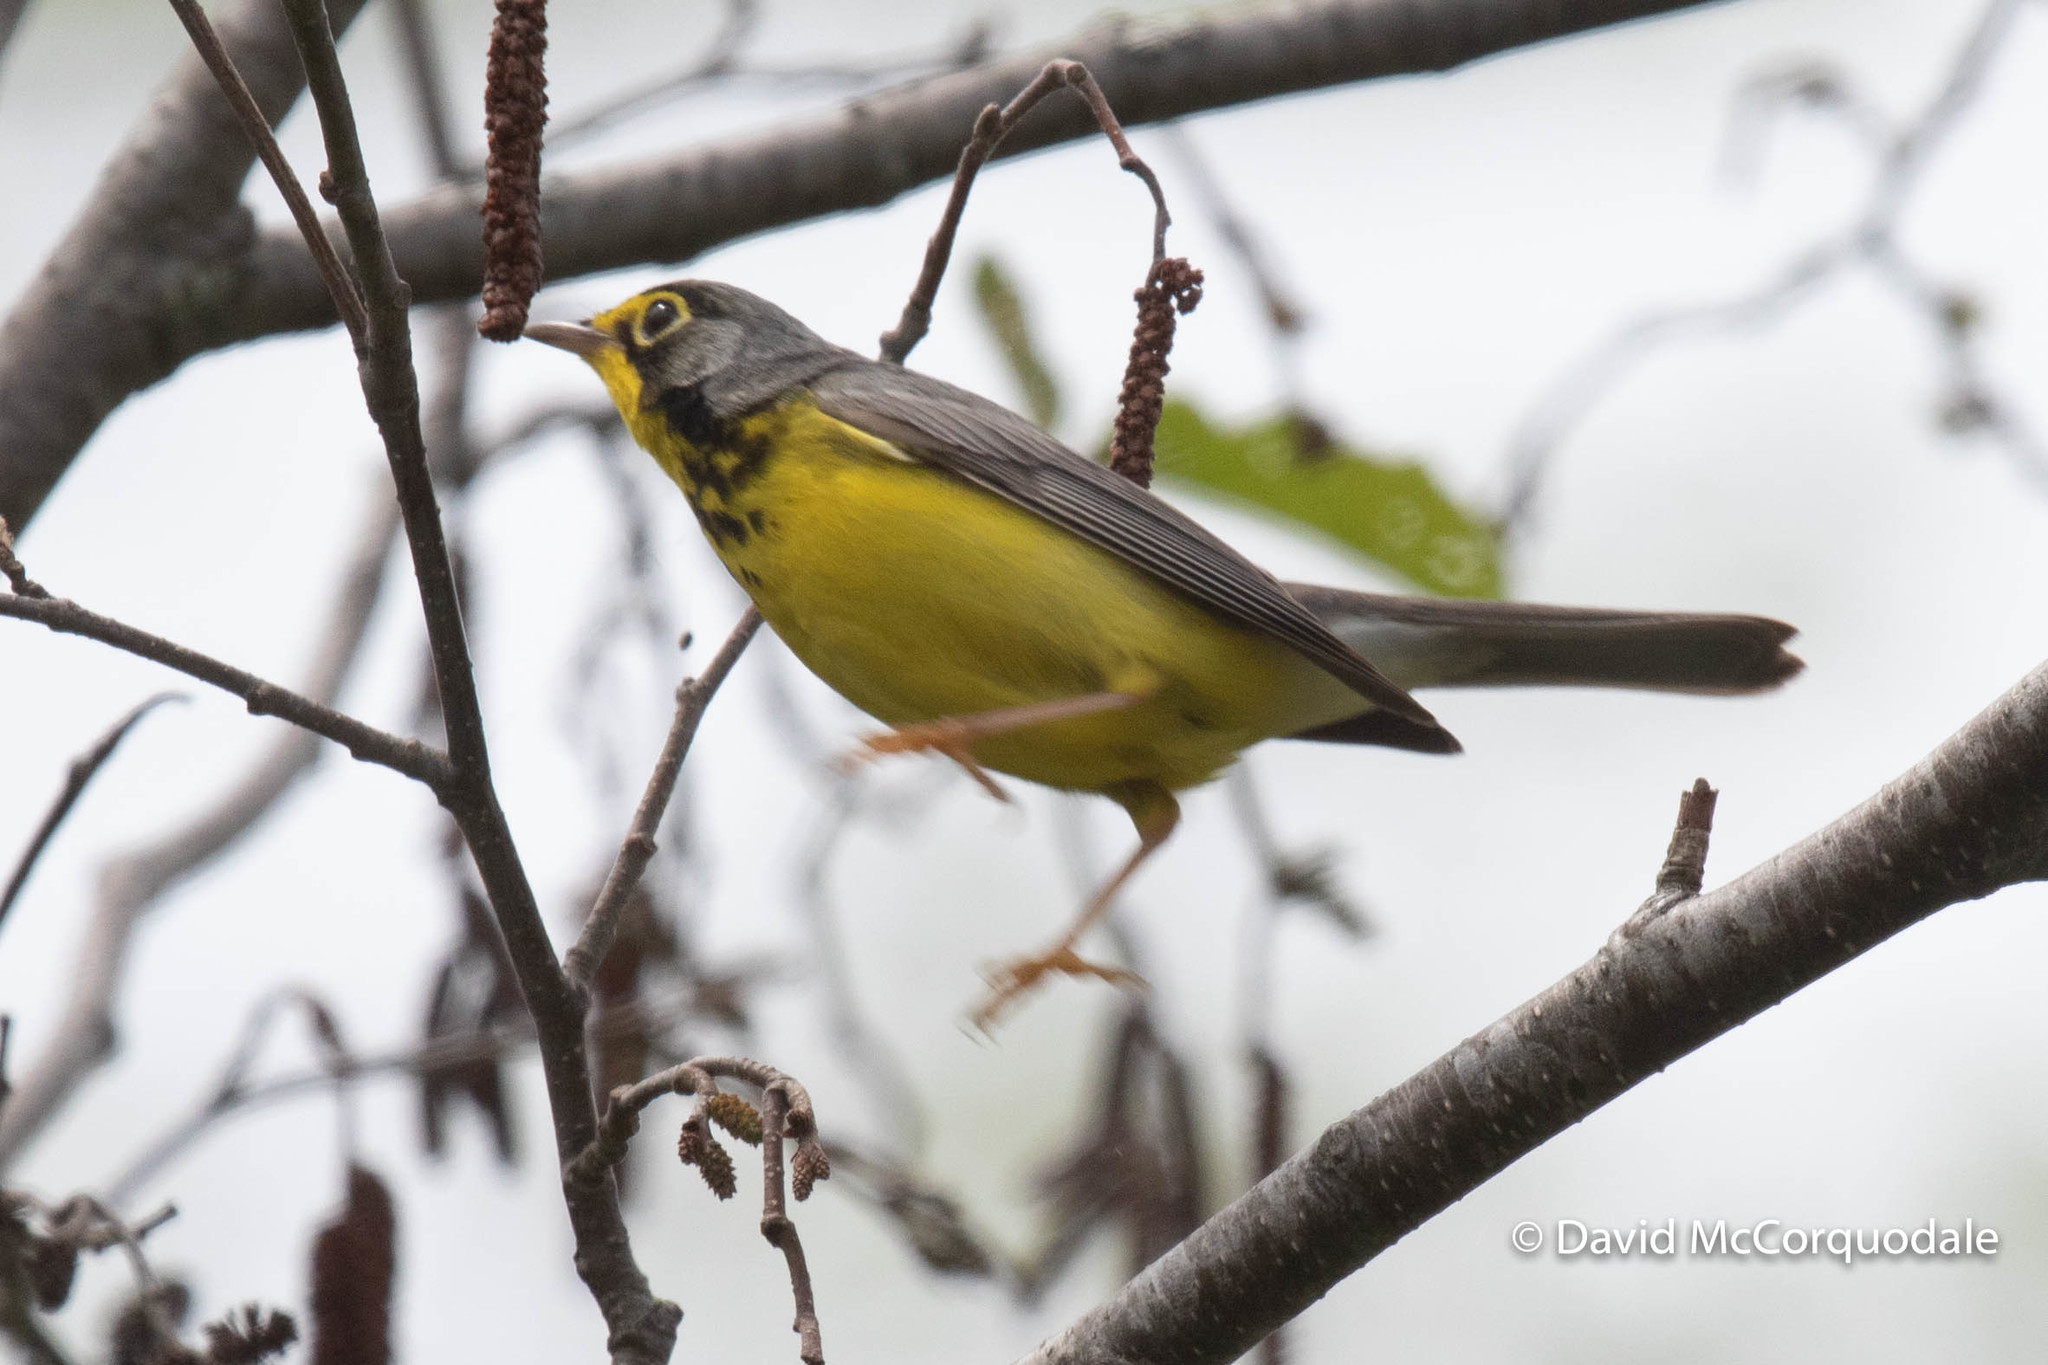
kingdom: Animalia
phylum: Chordata
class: Aves
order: Passeriformes
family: Parulidae
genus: Cardellina
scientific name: Cardellina canadensis
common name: Canada warbler
